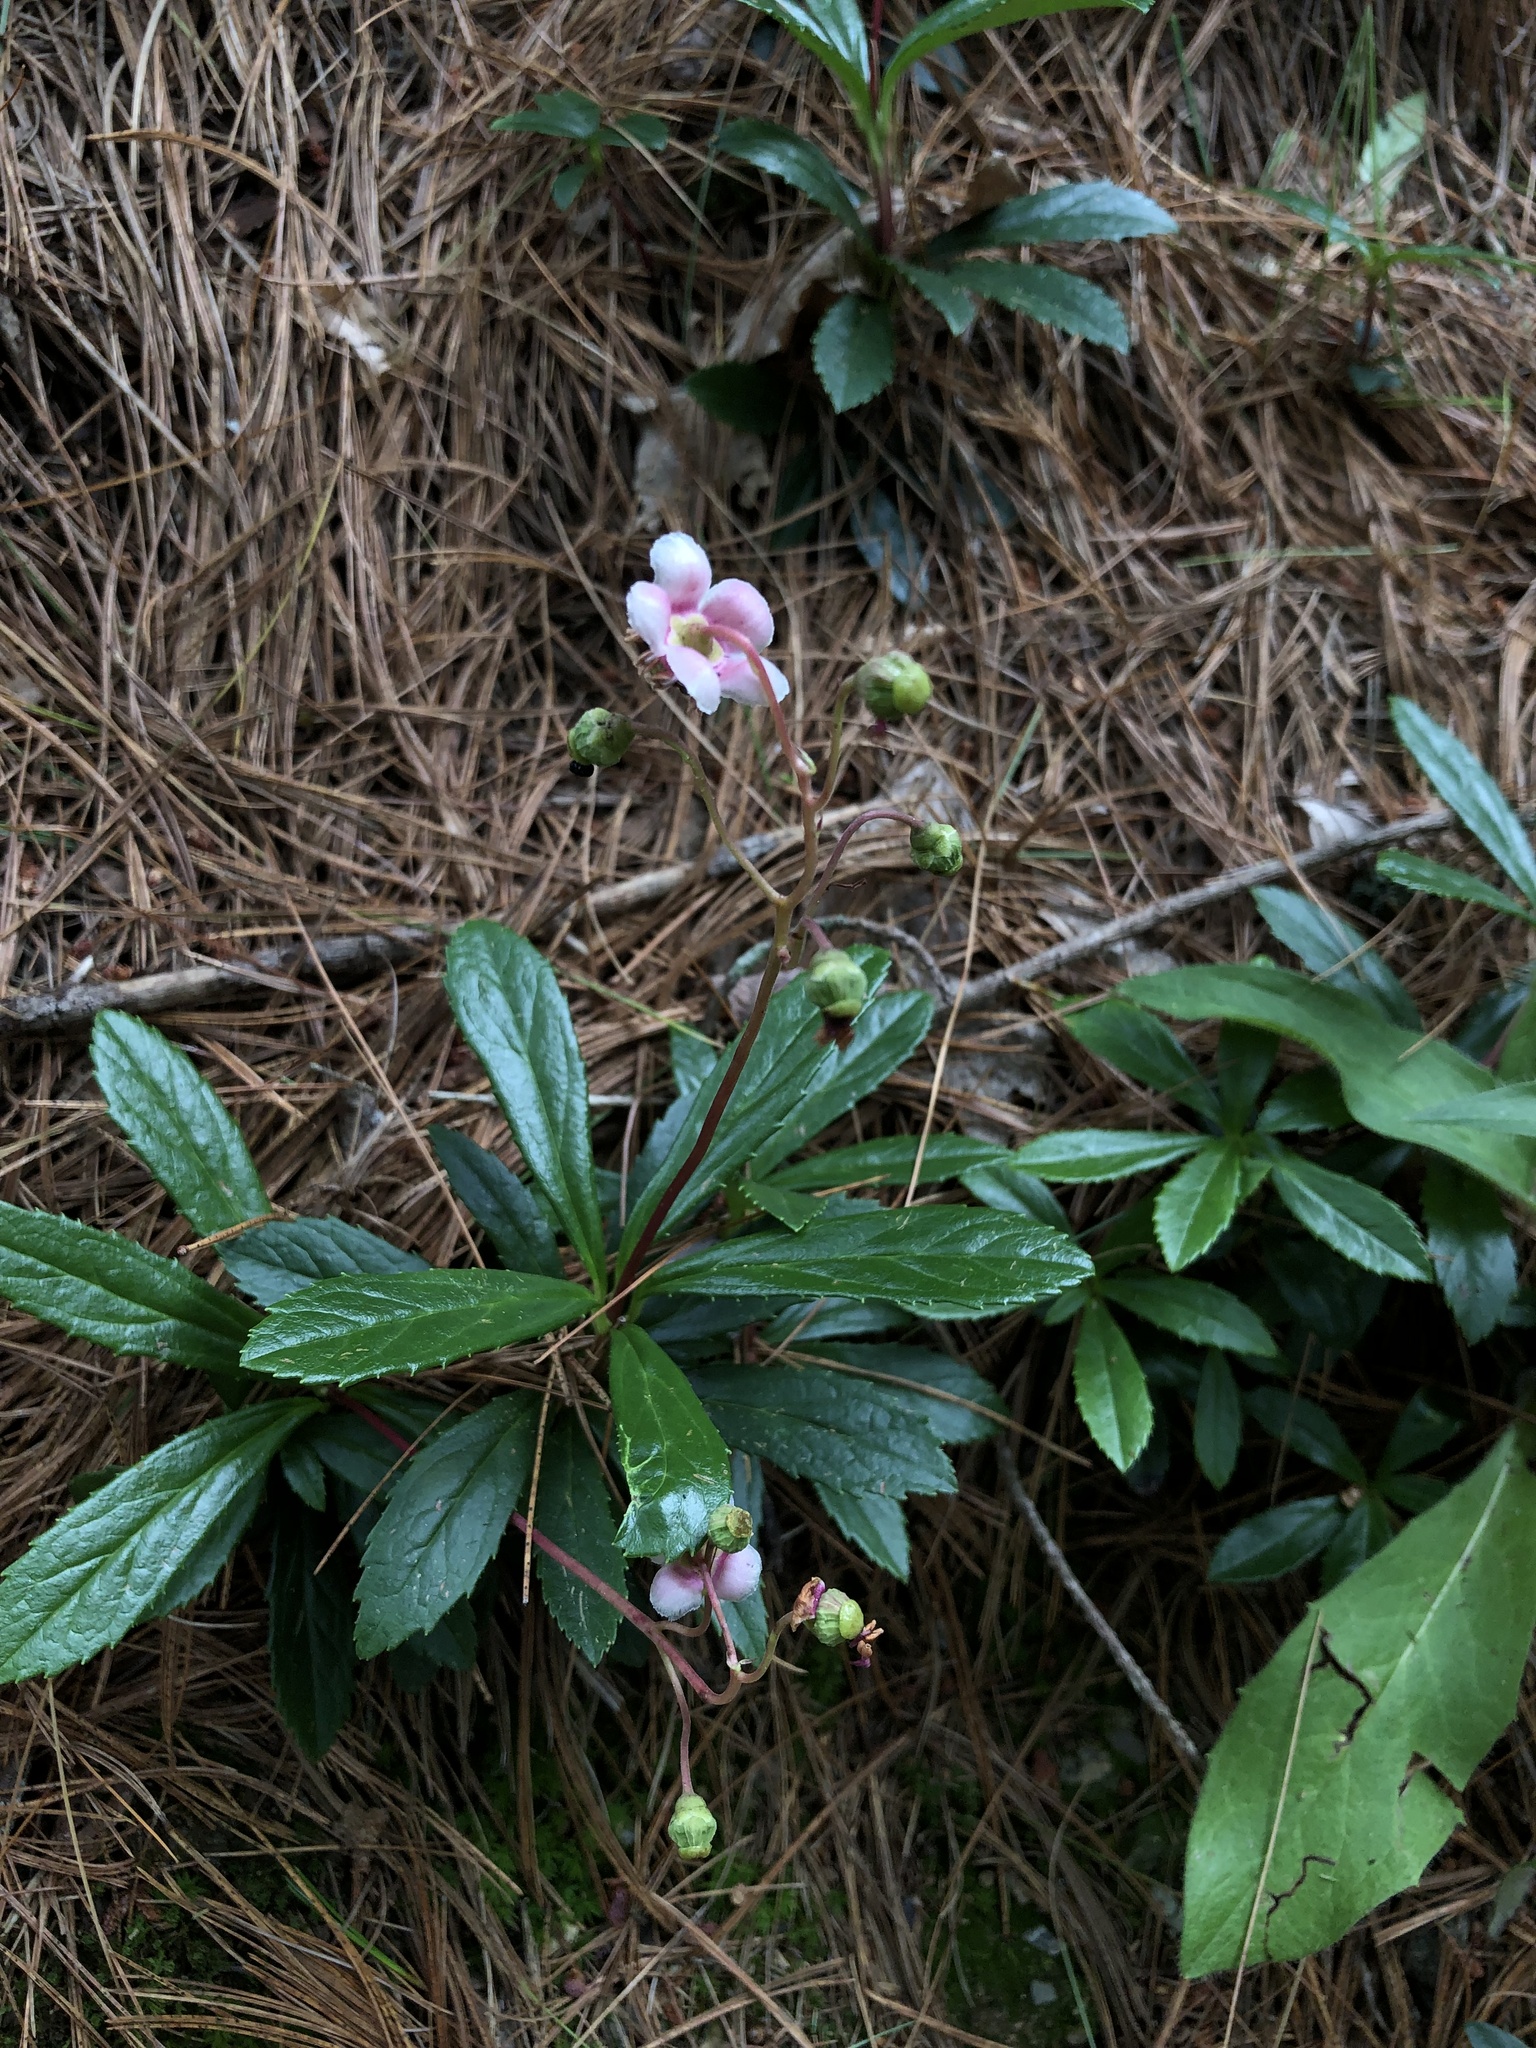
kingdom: Plantae
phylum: Tracheophyta
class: Magnoliopsida
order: Ericales
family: Ericaceae
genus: Chimaphila
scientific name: Chimaphila umbellata
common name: Pipsissewa
